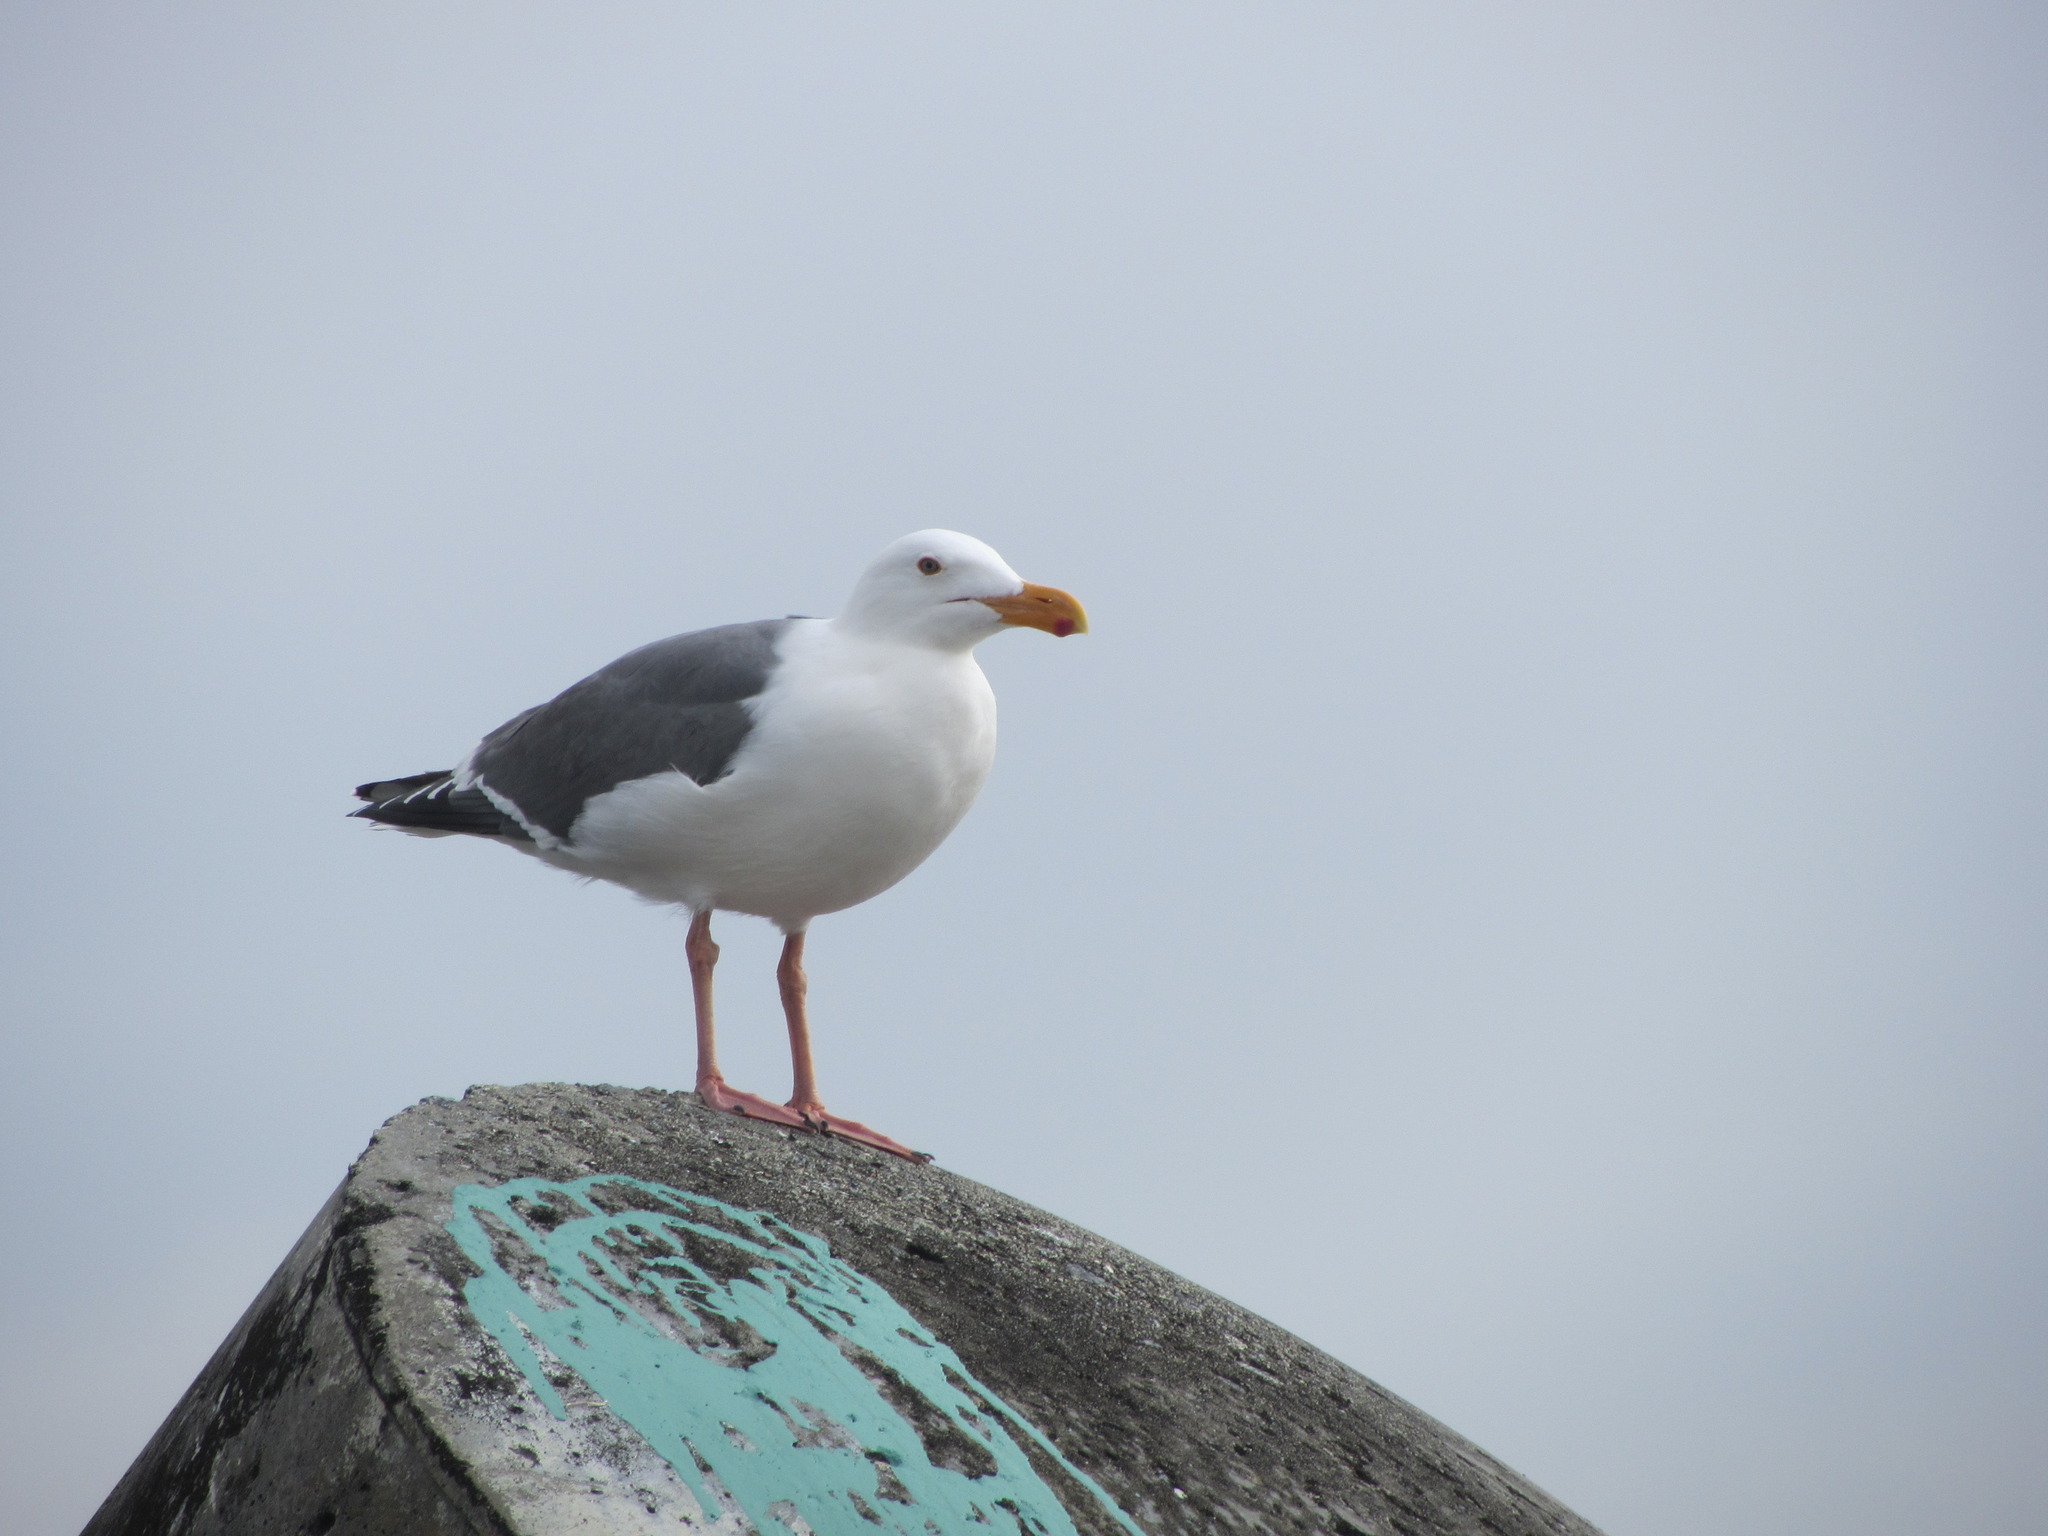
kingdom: Animalia
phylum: Chordata
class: Aves
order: Charadriiformes
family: Laridae
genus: Larus
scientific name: Larus occidentalis
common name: Western gull
